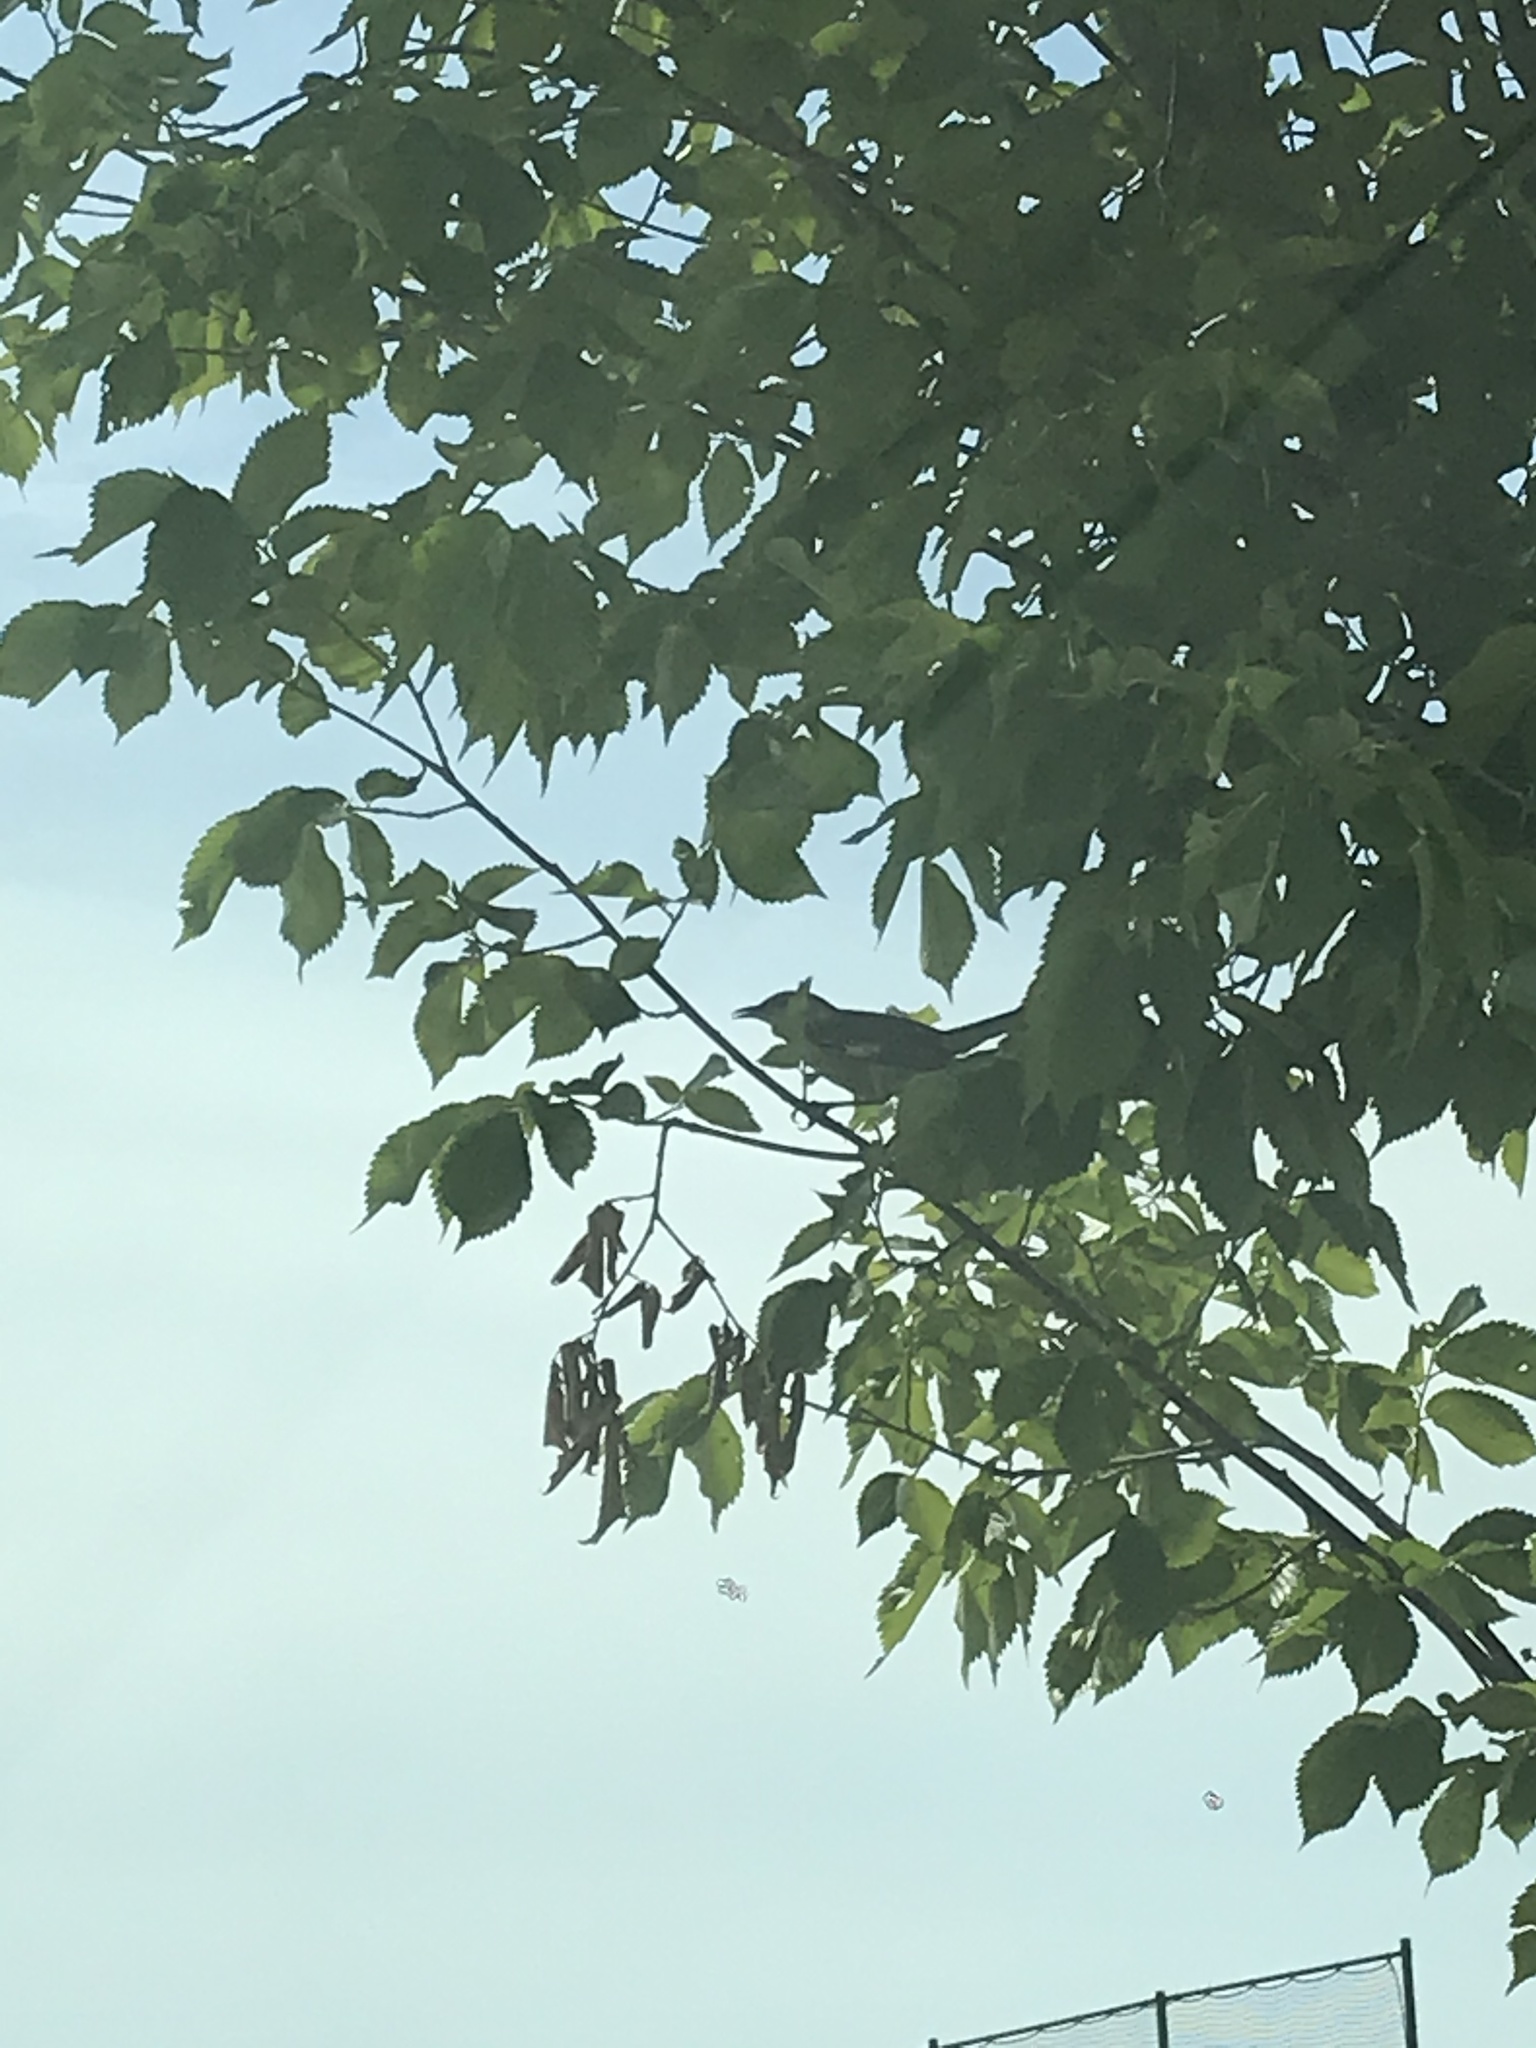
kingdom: Animalia
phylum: Chordata
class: Aves
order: Passeriformes
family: Mimidae
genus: Mimus
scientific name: Mimus polyglottos
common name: Northern mockingbird
